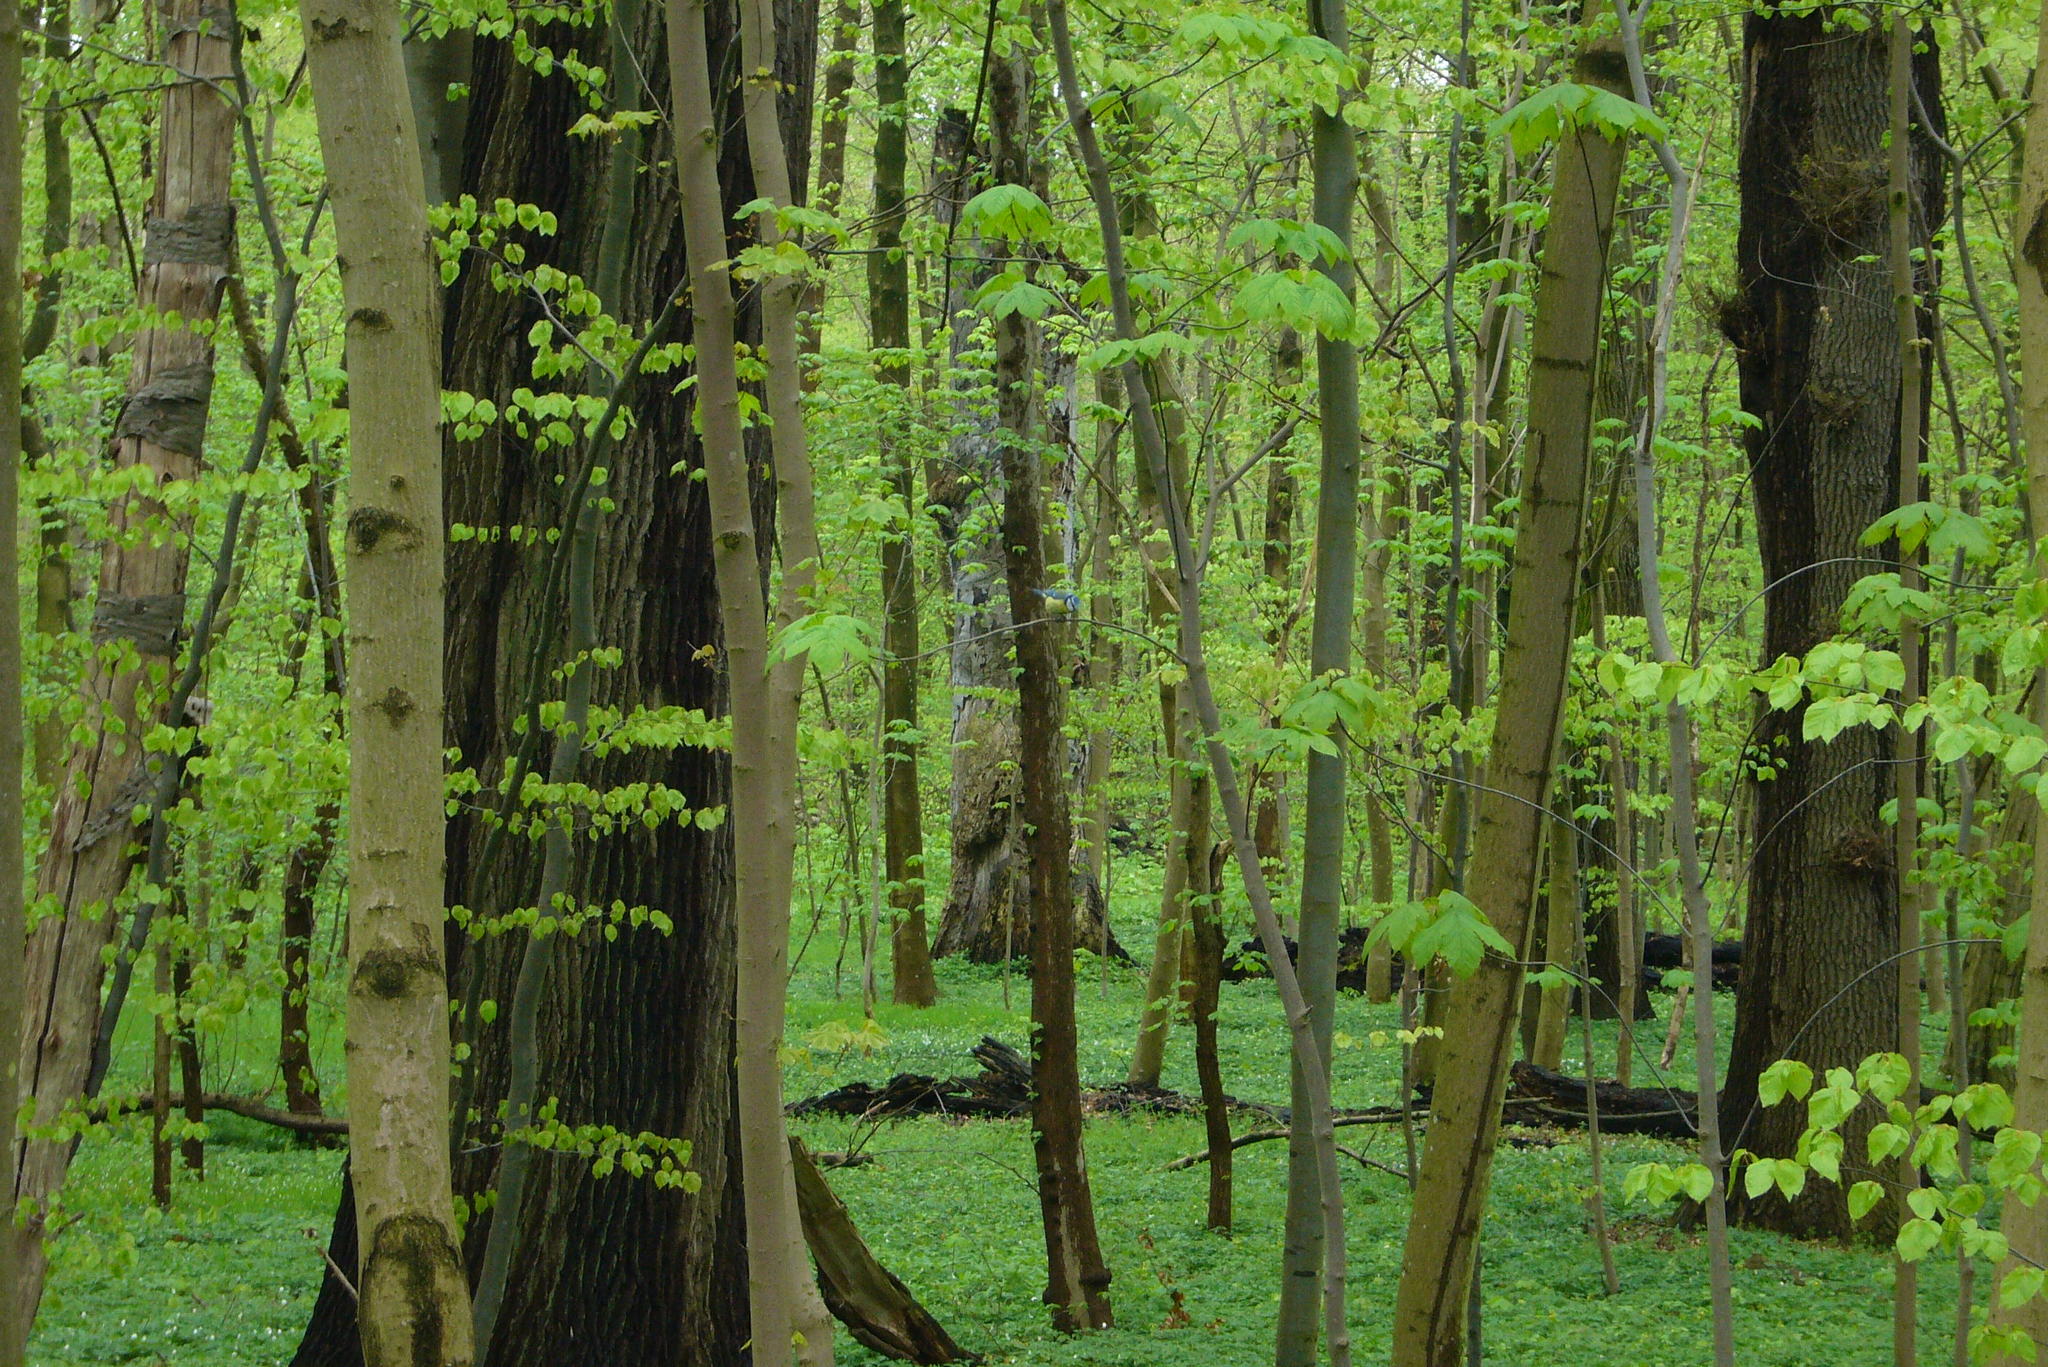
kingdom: Animalia
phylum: Chordata
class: Aves
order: Passeriformes
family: Paridae
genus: Cyanistes
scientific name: Cyanistes caeruleus
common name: Eurasian blue tit
